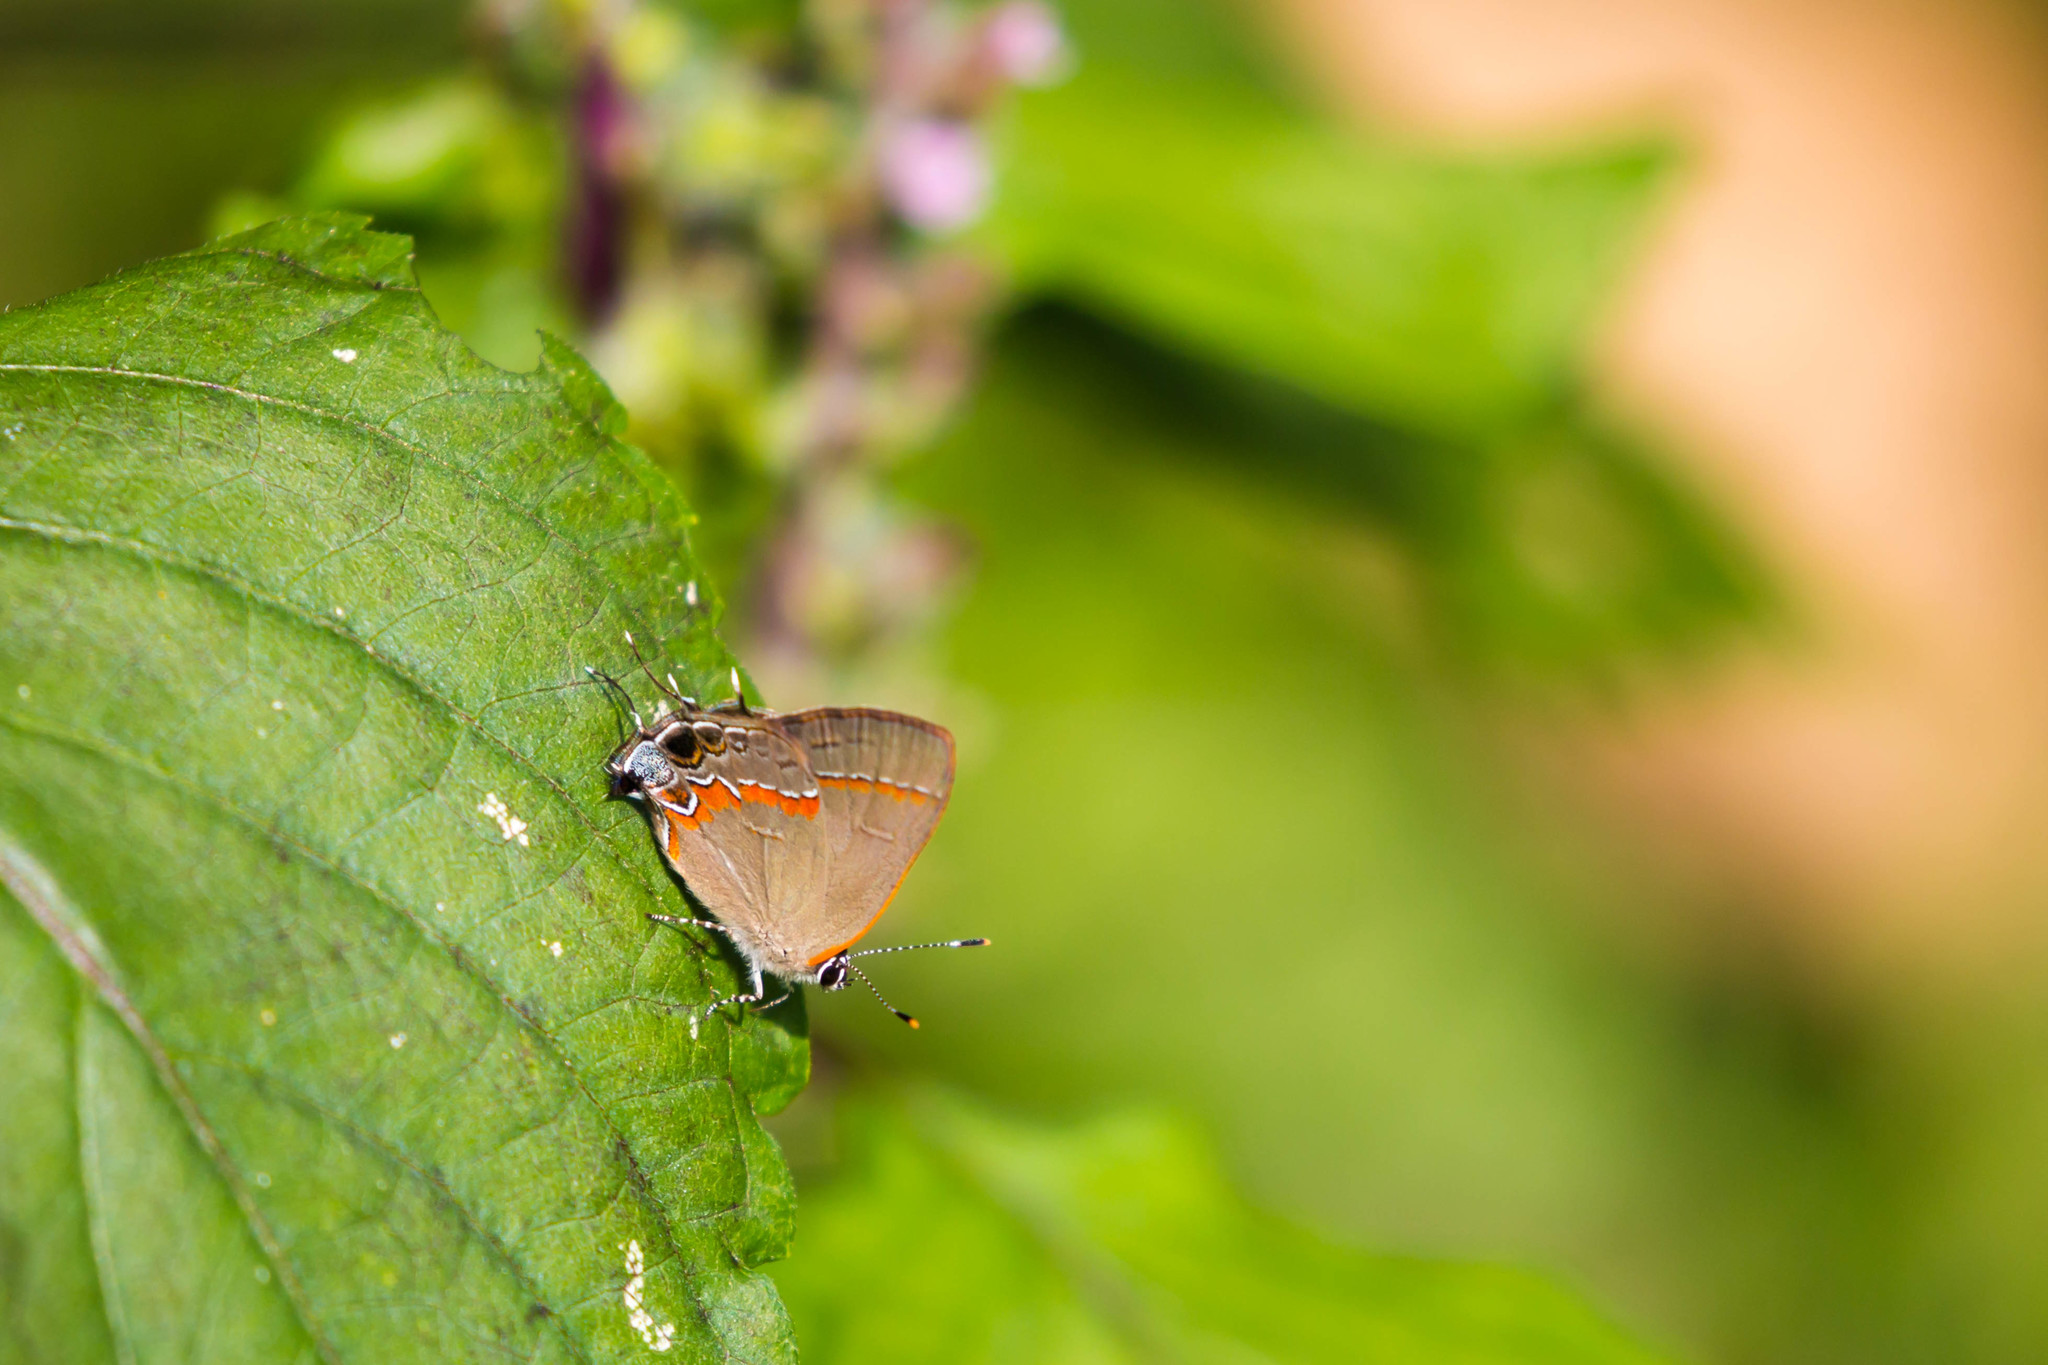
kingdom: Animalia
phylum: Arthropoda
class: Insecta
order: Lepidoptera
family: Lycaenidae
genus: Calycopis
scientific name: Calycopis cecrops
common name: Red-banded hairstreak
